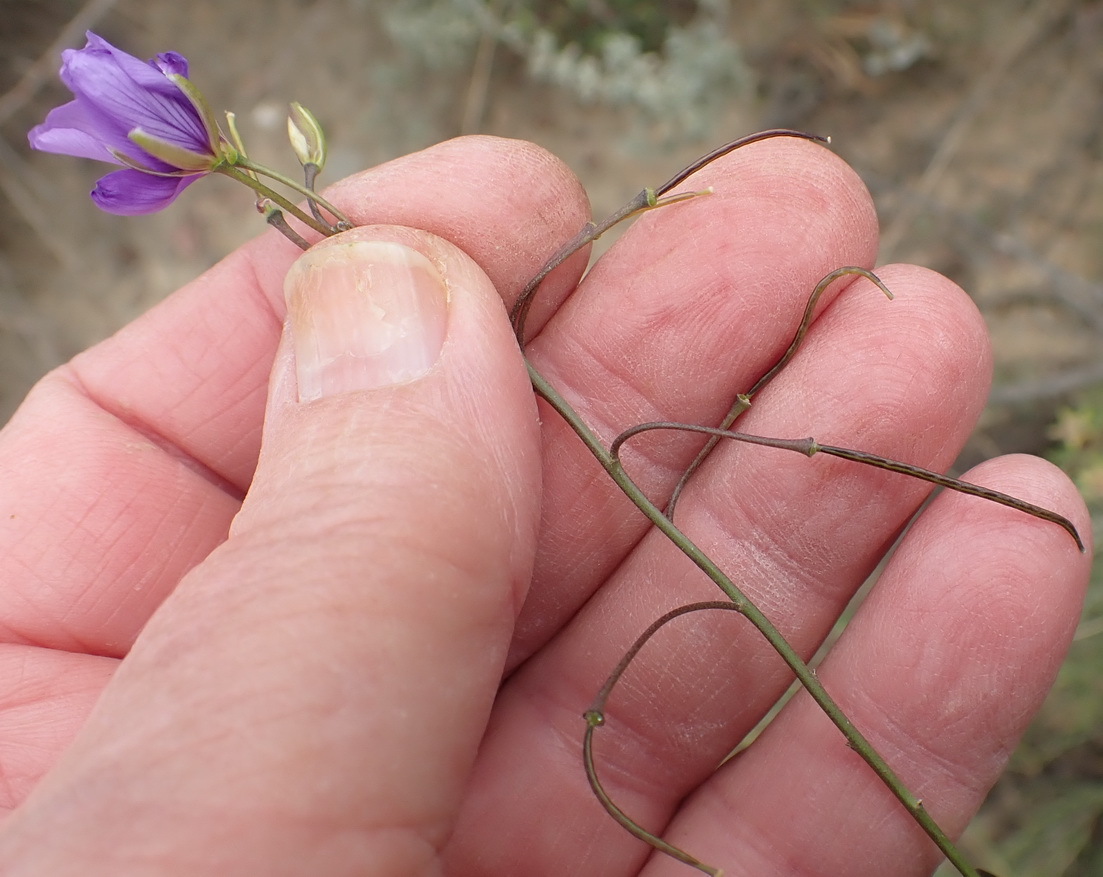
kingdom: Plantae
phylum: Tracheophyta
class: Magnoliopsida
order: Brassicales
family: Brassicaceae
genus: Heliophila
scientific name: Heliophila suavissima
